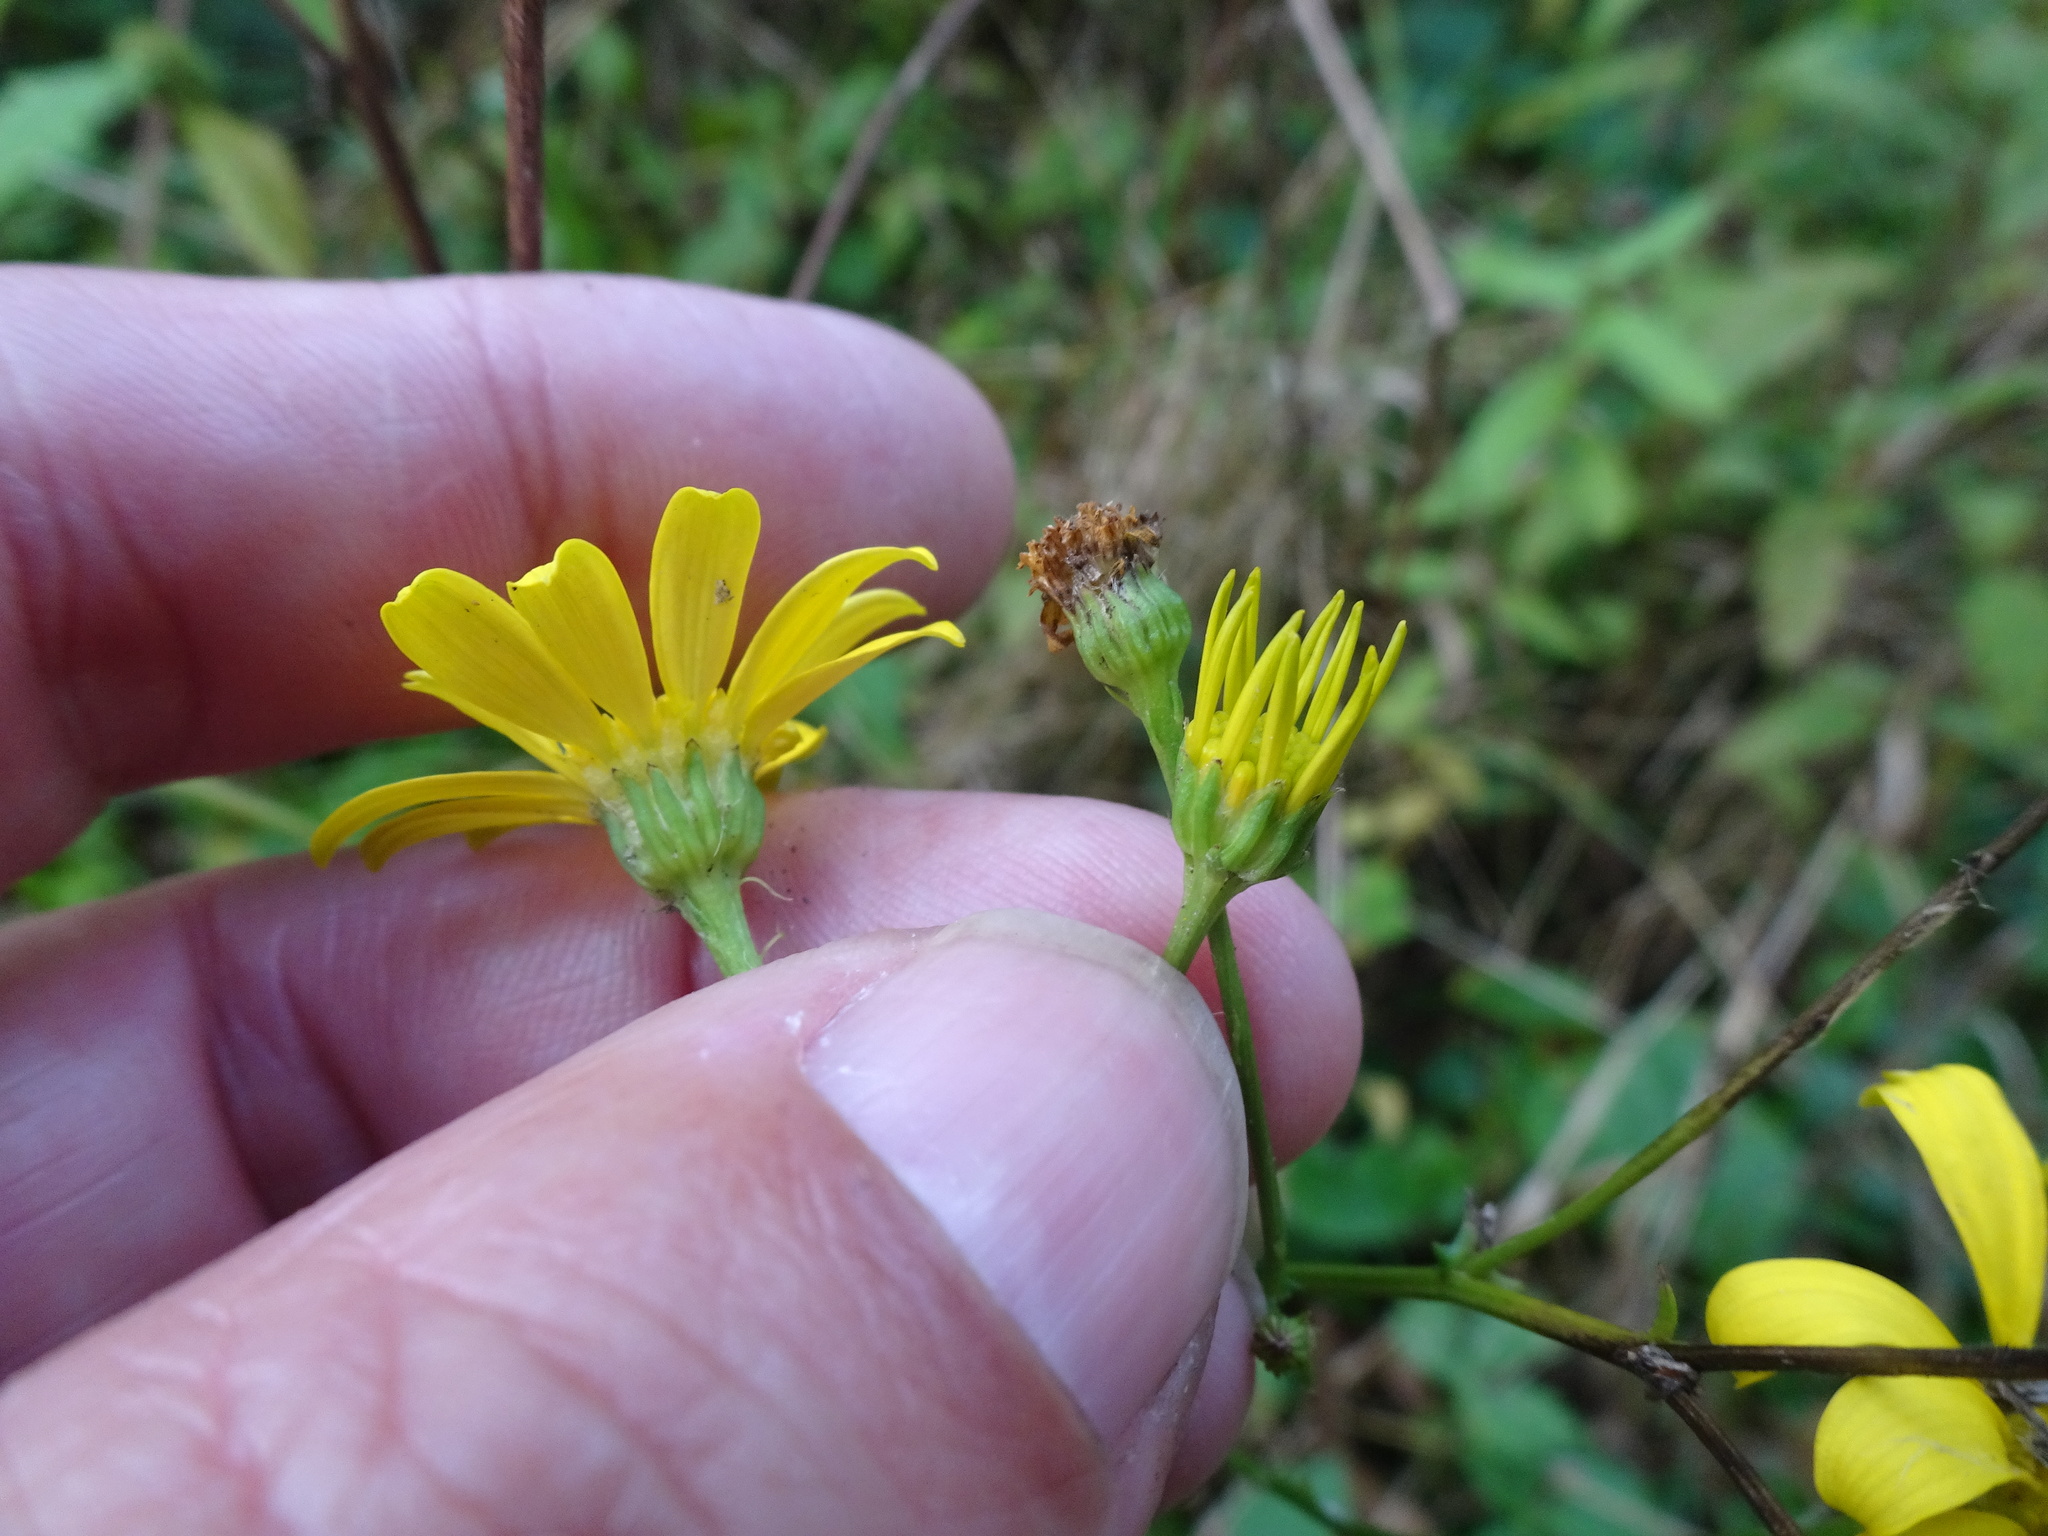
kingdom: Plantae
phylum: Tracheophyta
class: Magnoliopsida
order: Asterales
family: Asteraceae
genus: Jacobaea
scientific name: Jacobaea aquatica
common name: Water ragwort
